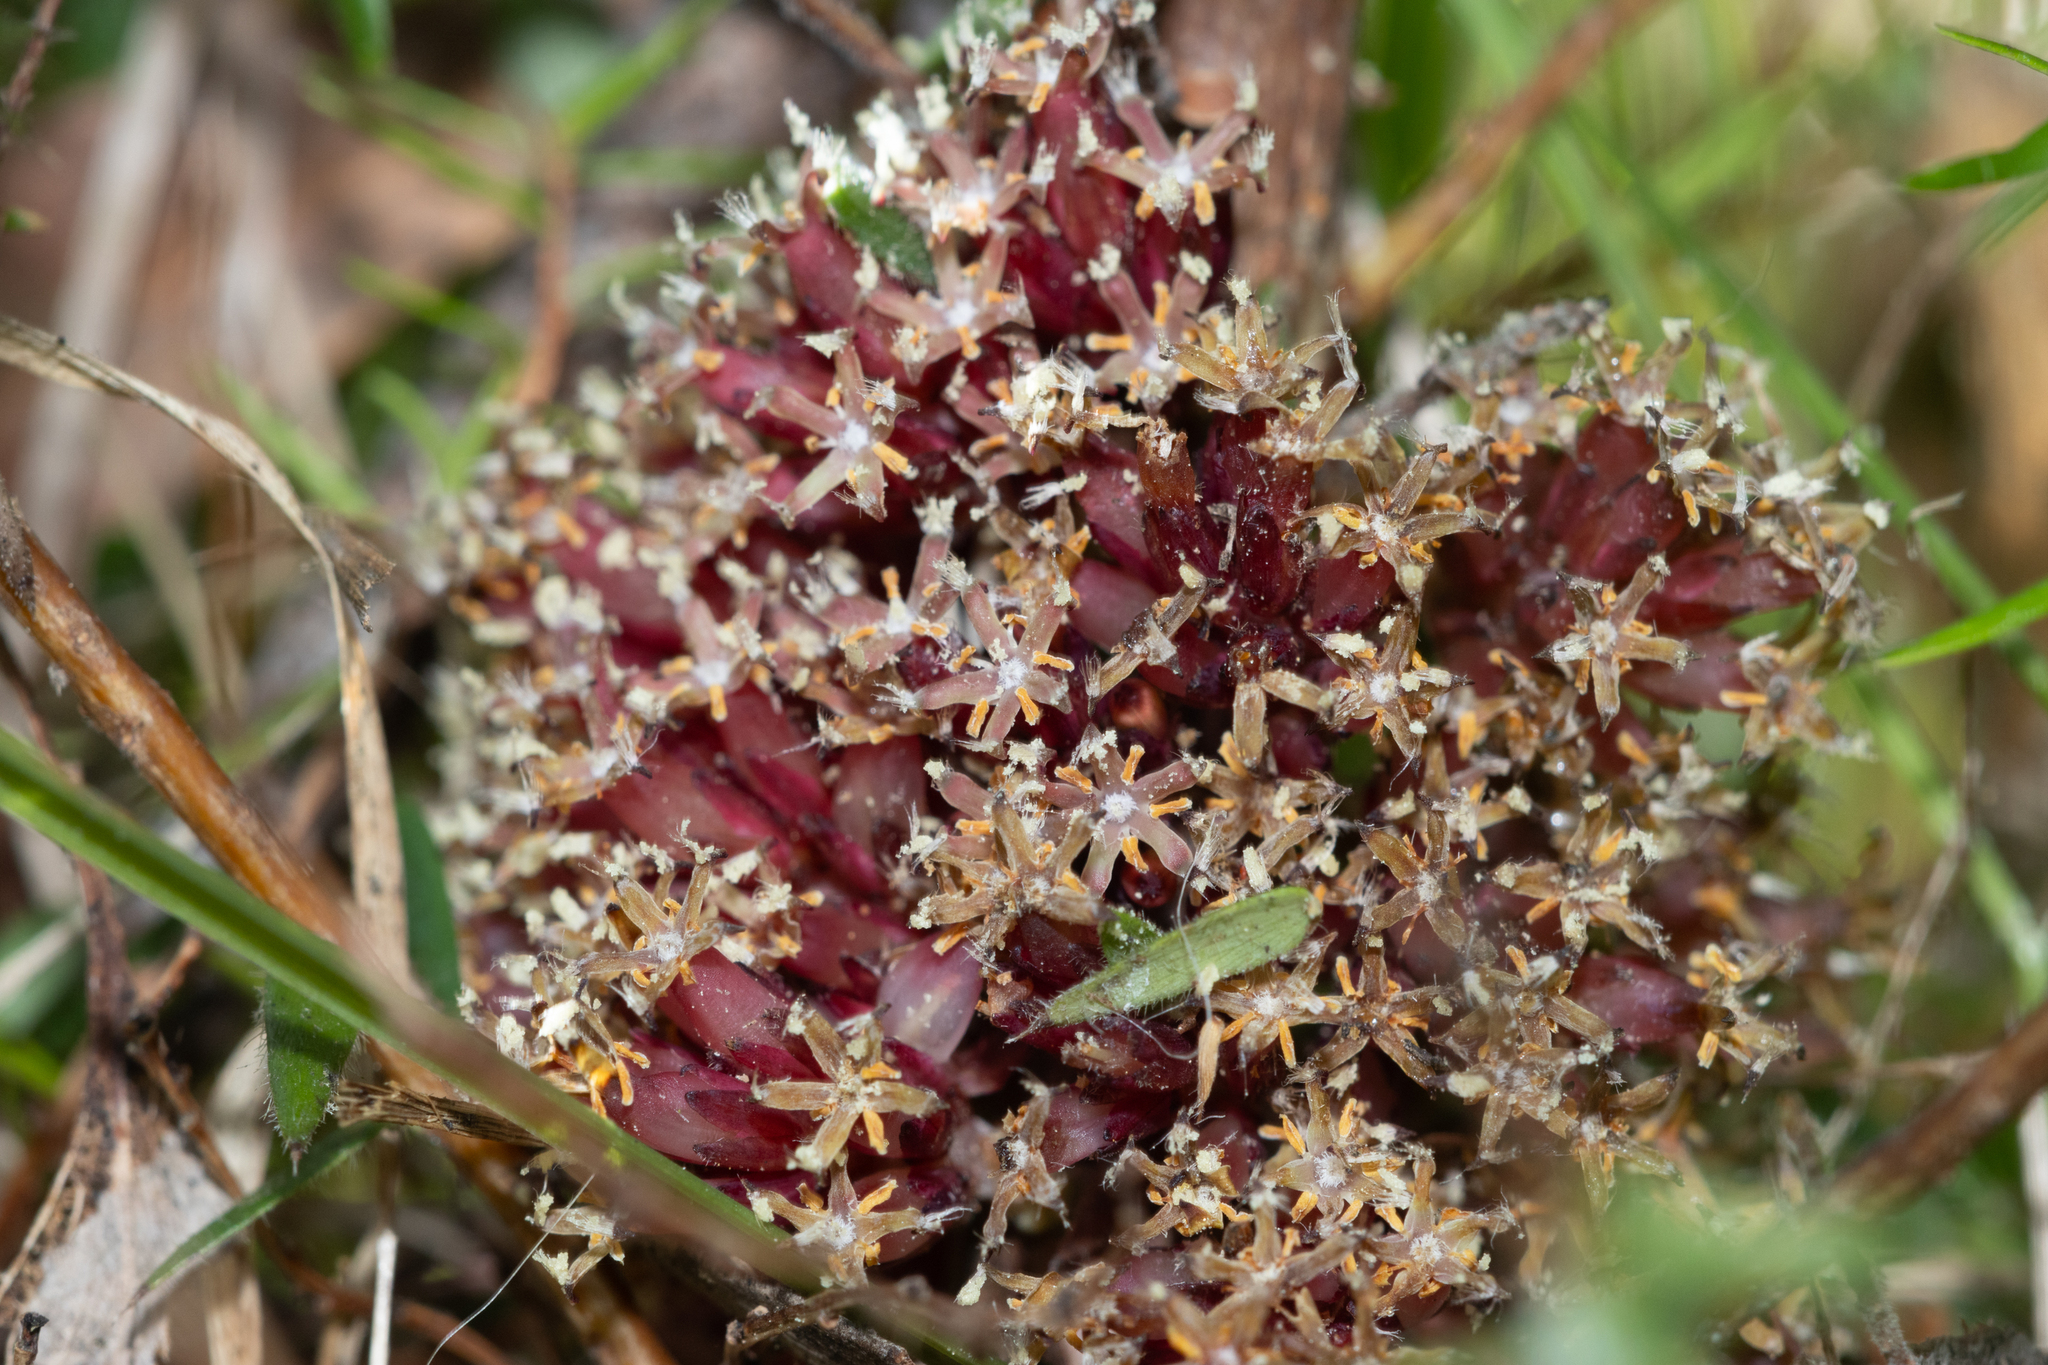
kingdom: Plantae
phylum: Tracheophyta
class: Magnoliopsida
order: Ericales
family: Ericaceae
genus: Acrotriche
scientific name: Acrotriche fasciculiflora
